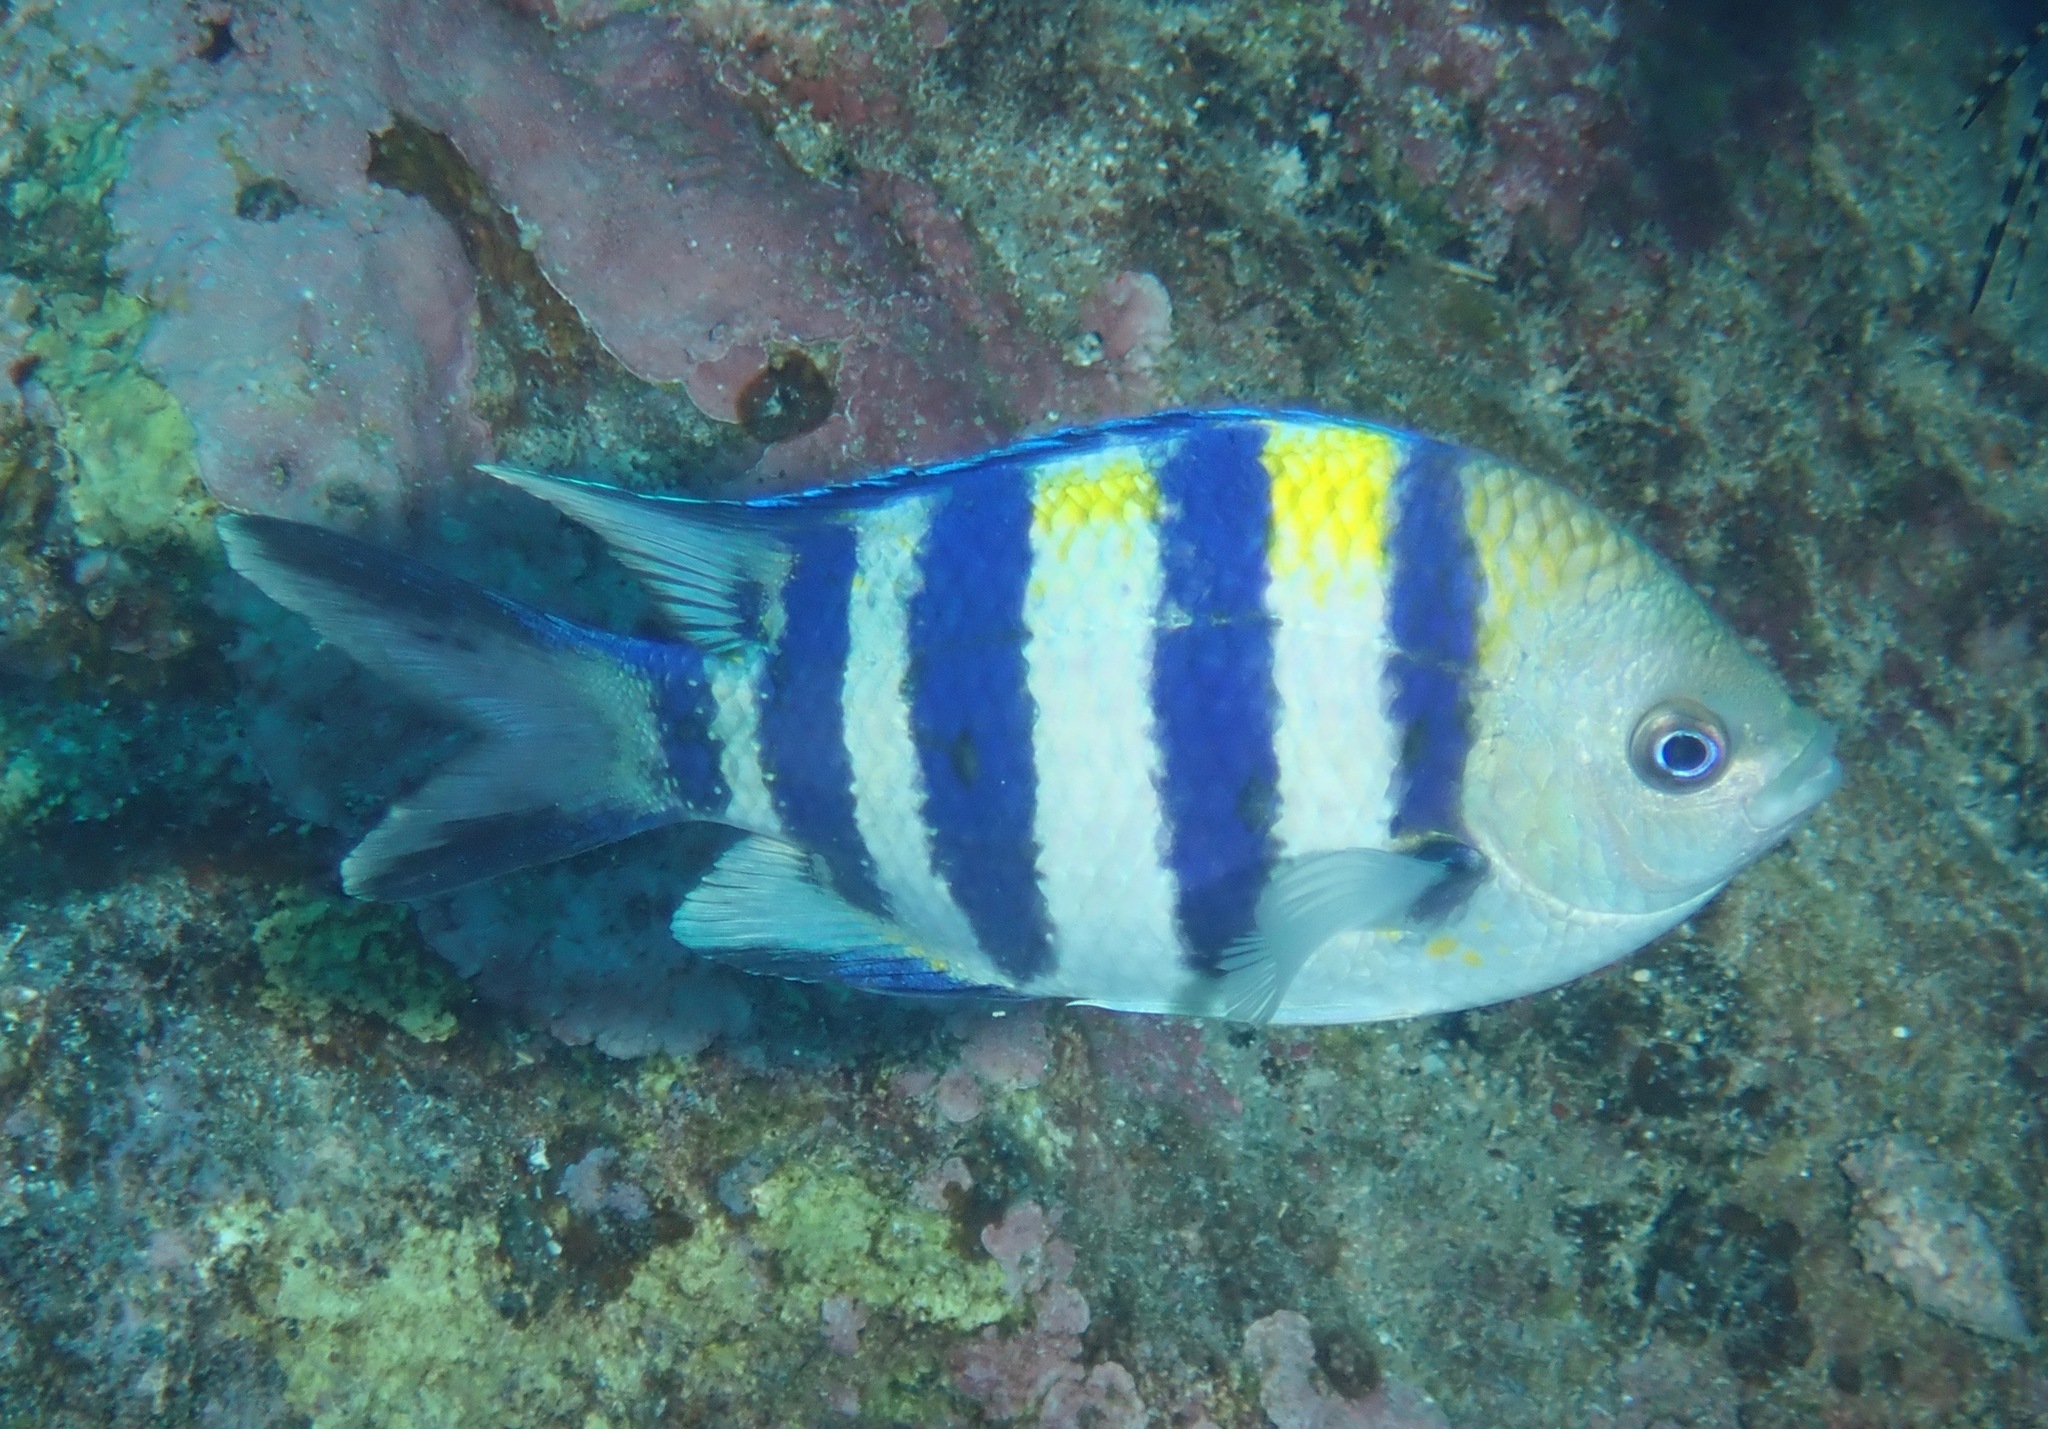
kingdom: Animalia
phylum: Chordata
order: Perciformes
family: Pomacentridae
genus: Abudefduf
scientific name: Abudefduf vaigiensis
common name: Indo-pacific sergeant
